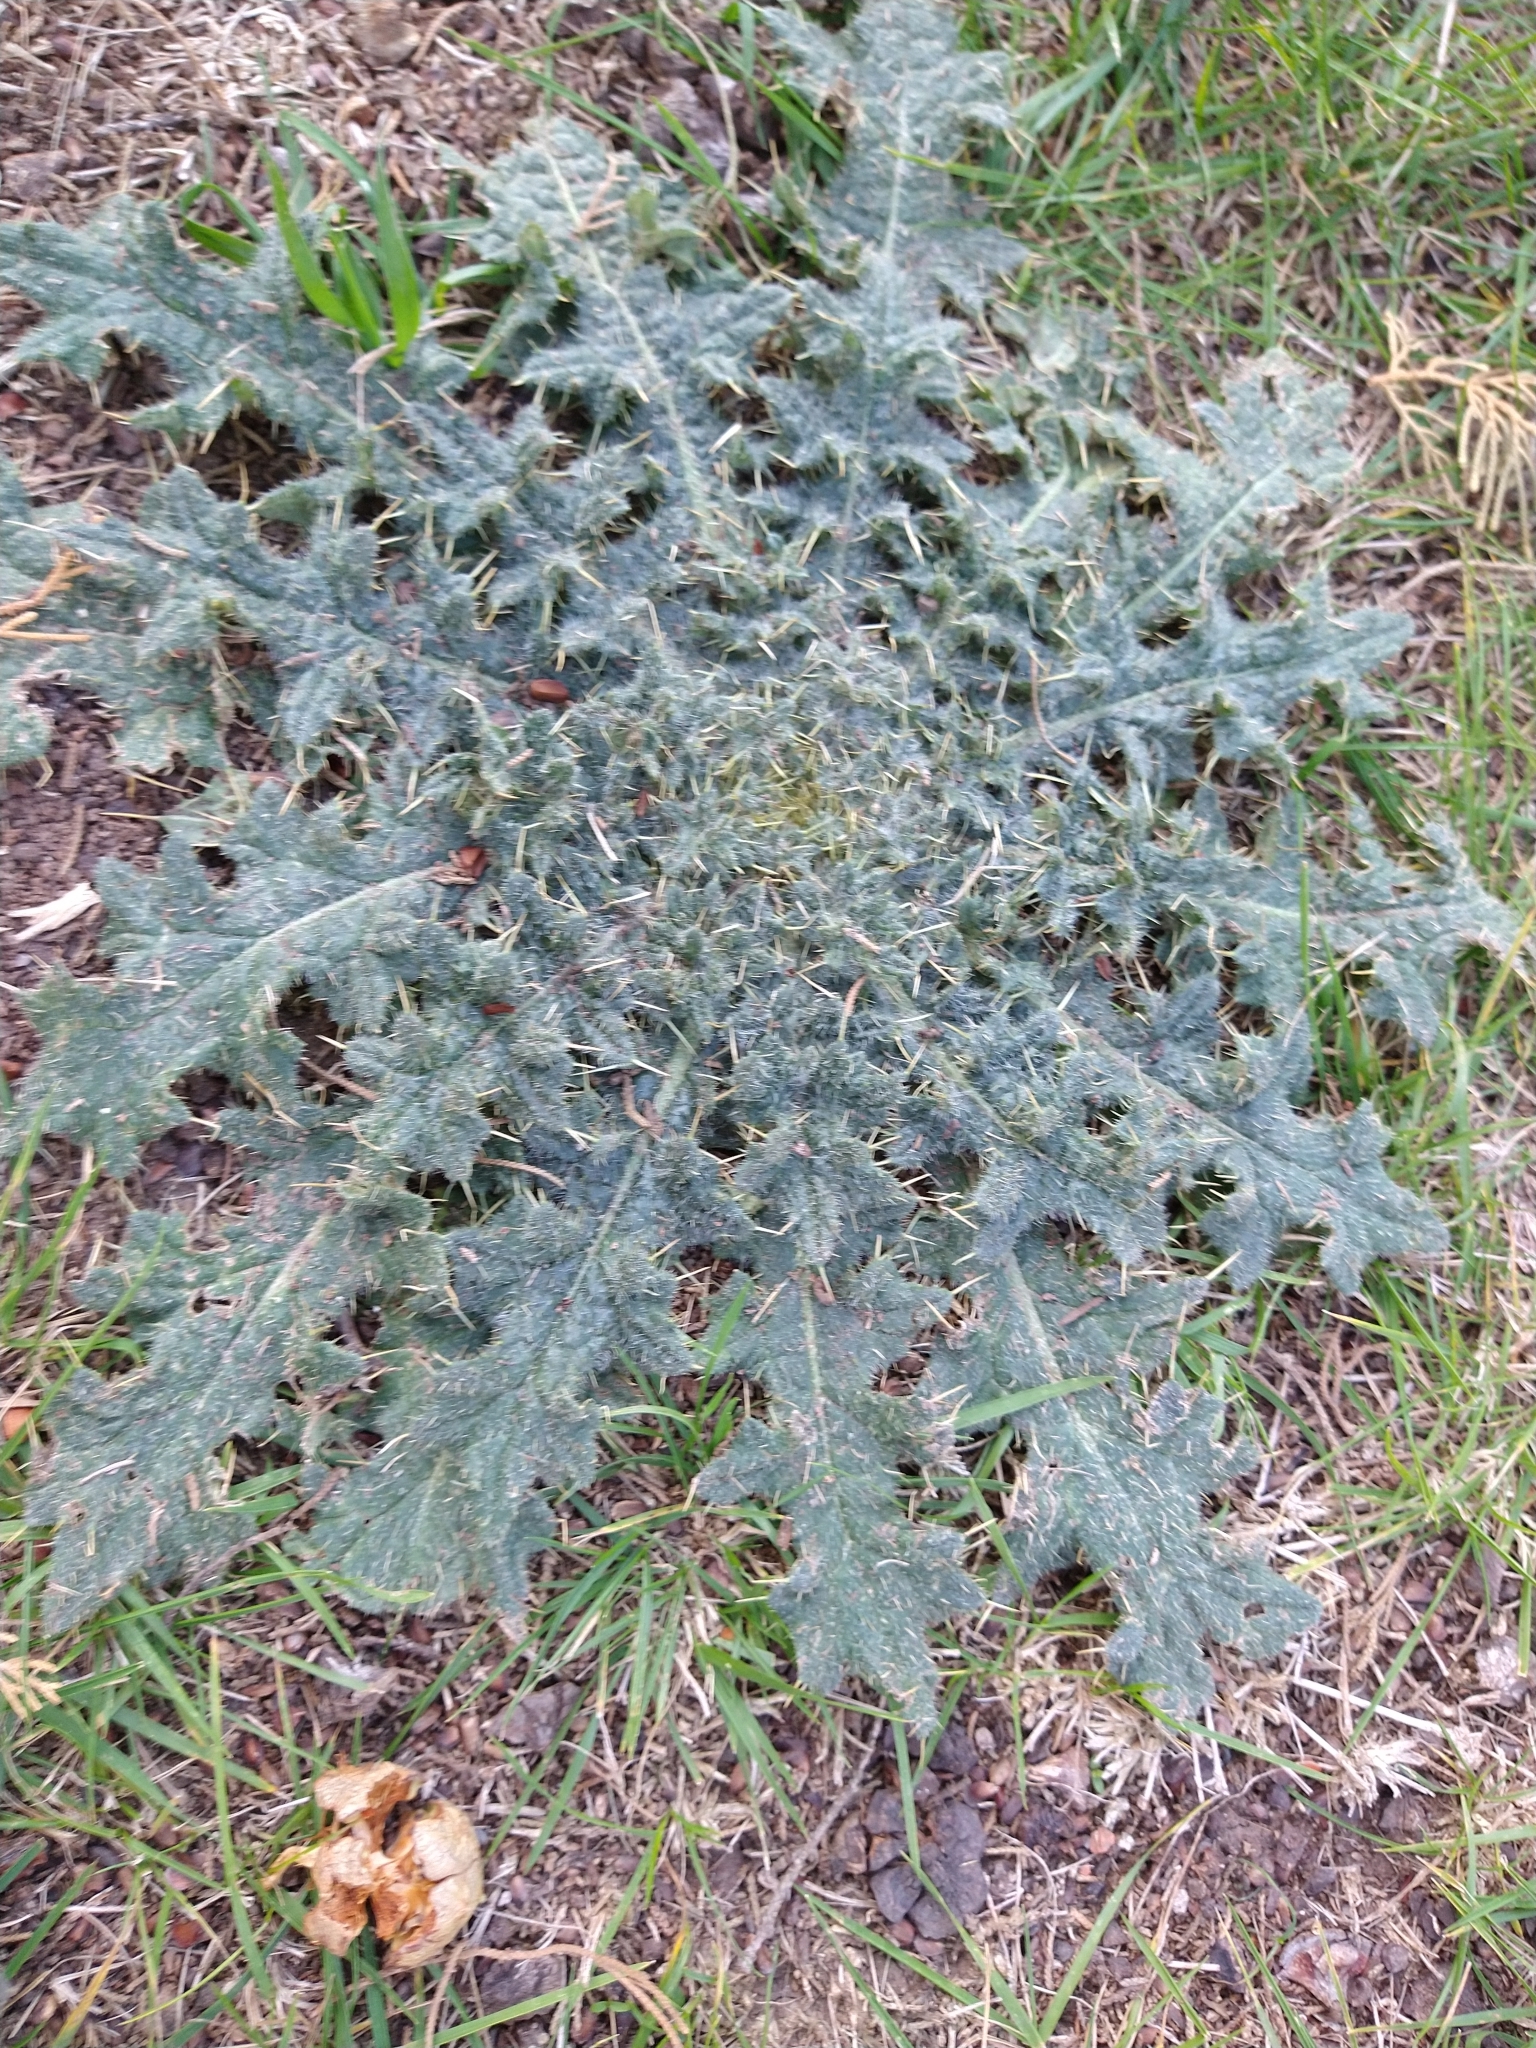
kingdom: Plantae
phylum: Tracheophyta
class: Magnoliopsida
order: Asterales
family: Asteraceae
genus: Cirsium
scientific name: Cirsium vulgare
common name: Bull thistle
